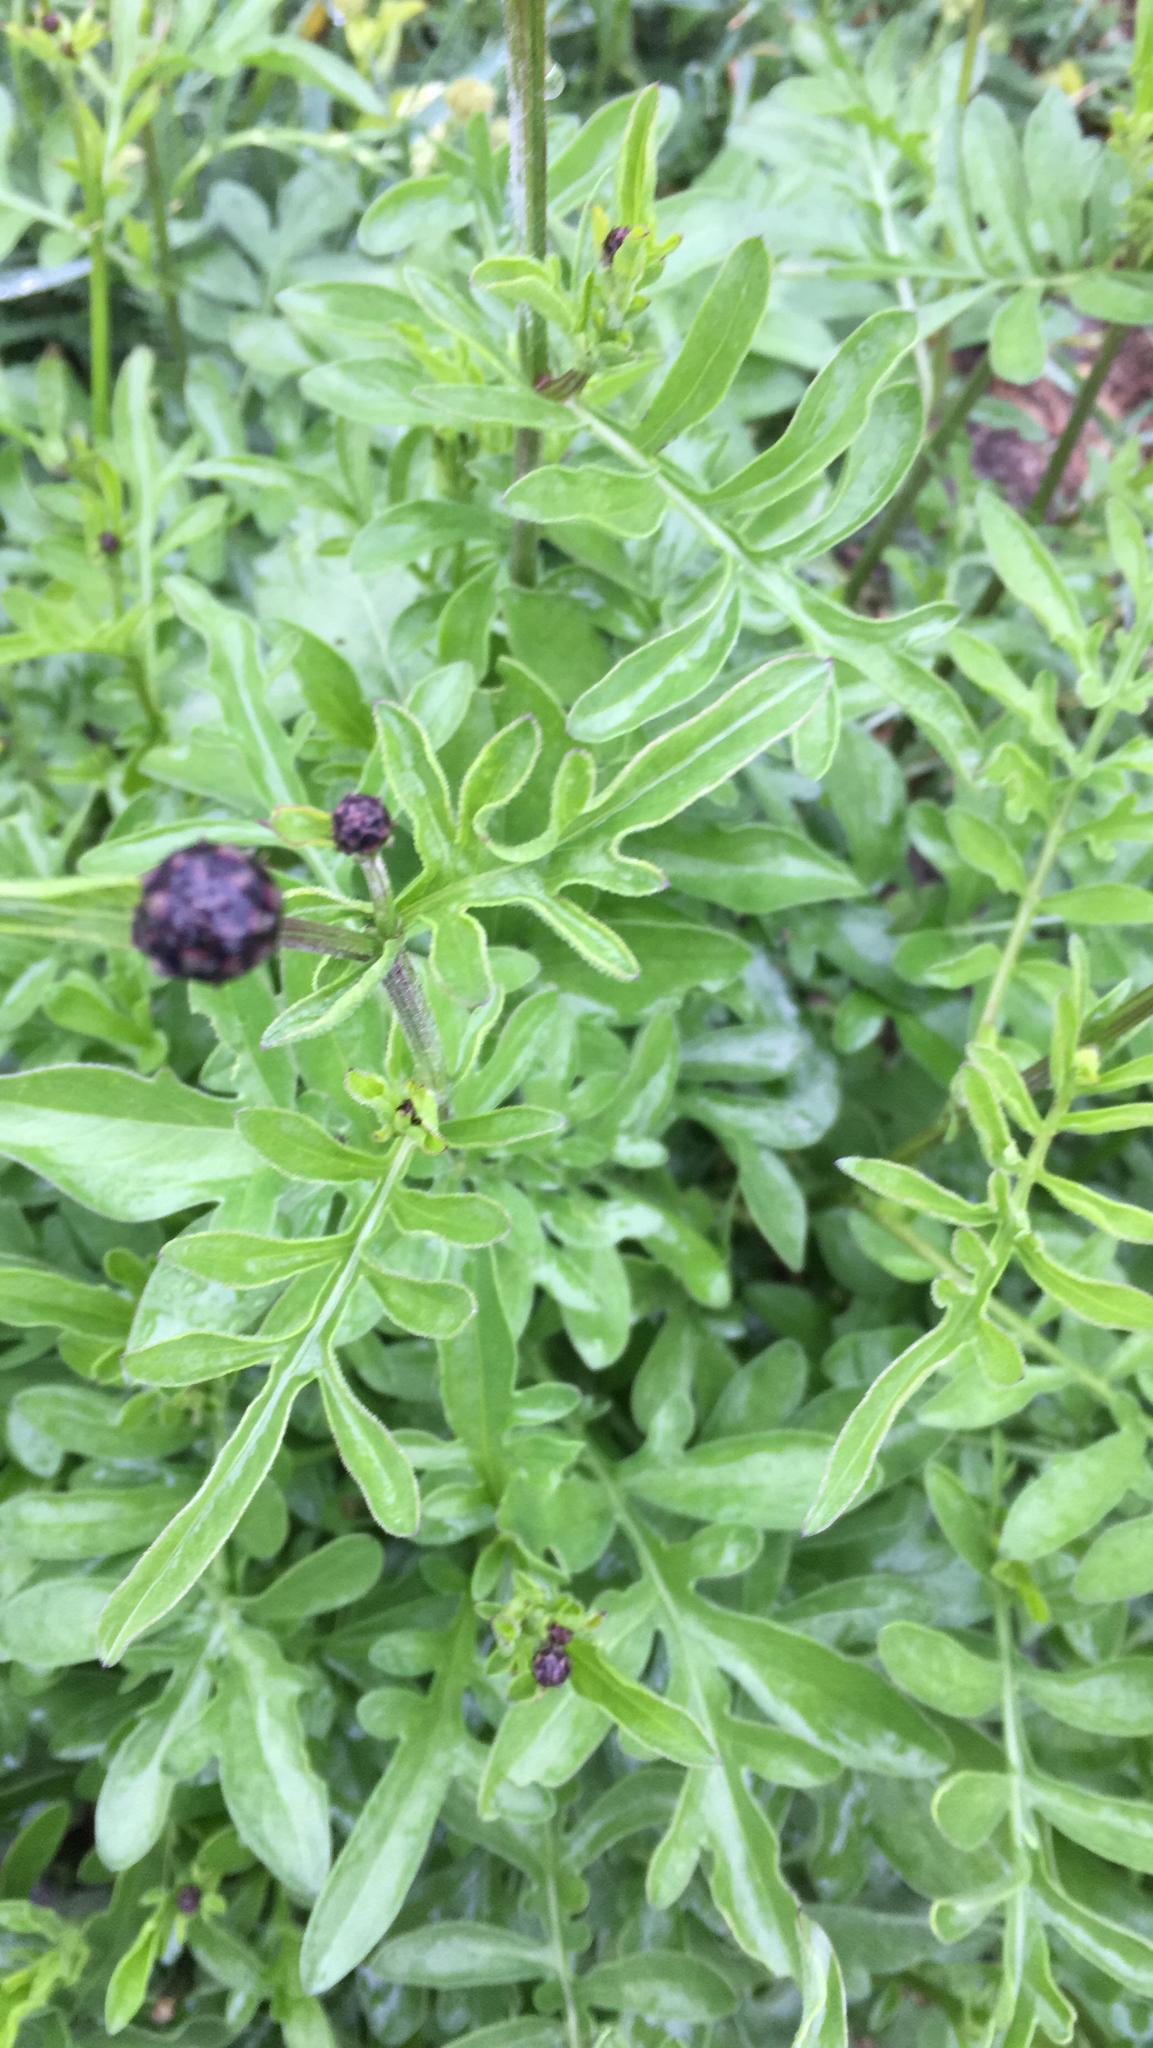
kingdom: Plantae
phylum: Tracheophyta
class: Magnoliopsida
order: Asterales
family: Asteraceae
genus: Centaurea
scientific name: Centaurea scabiosa
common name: Greater knapweed
